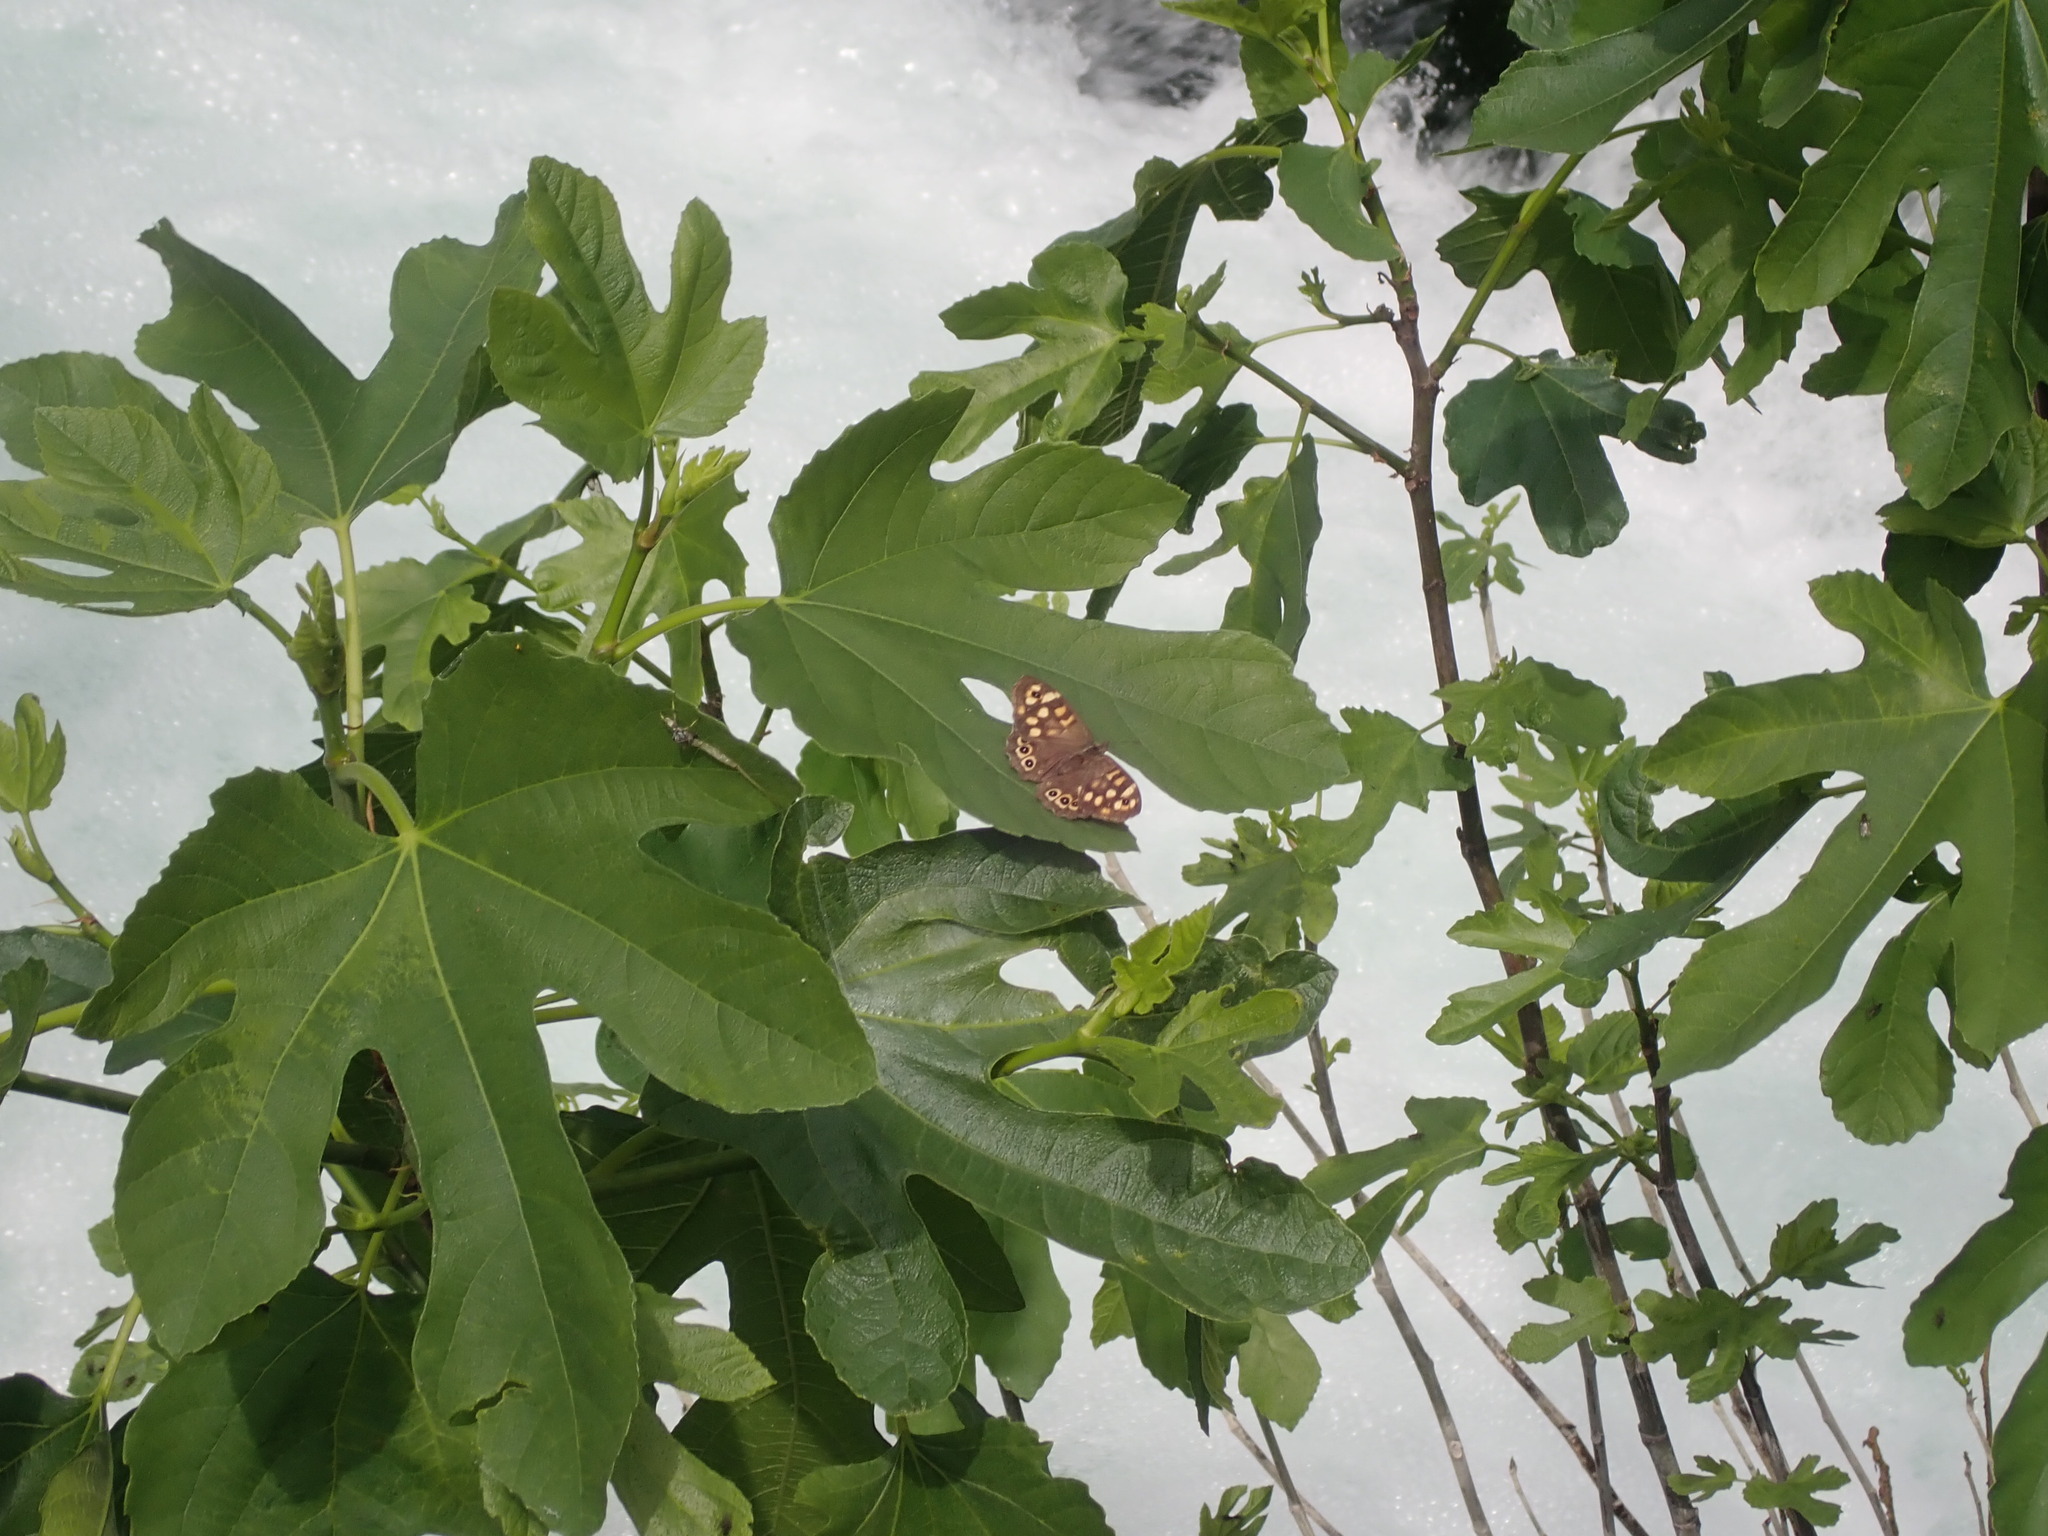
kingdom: Animalia
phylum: Arthropoda
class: Insecta
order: Lepidoptera
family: Nymphalidae
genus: Pararge
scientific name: Pararge aegeria
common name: Speckled wood
